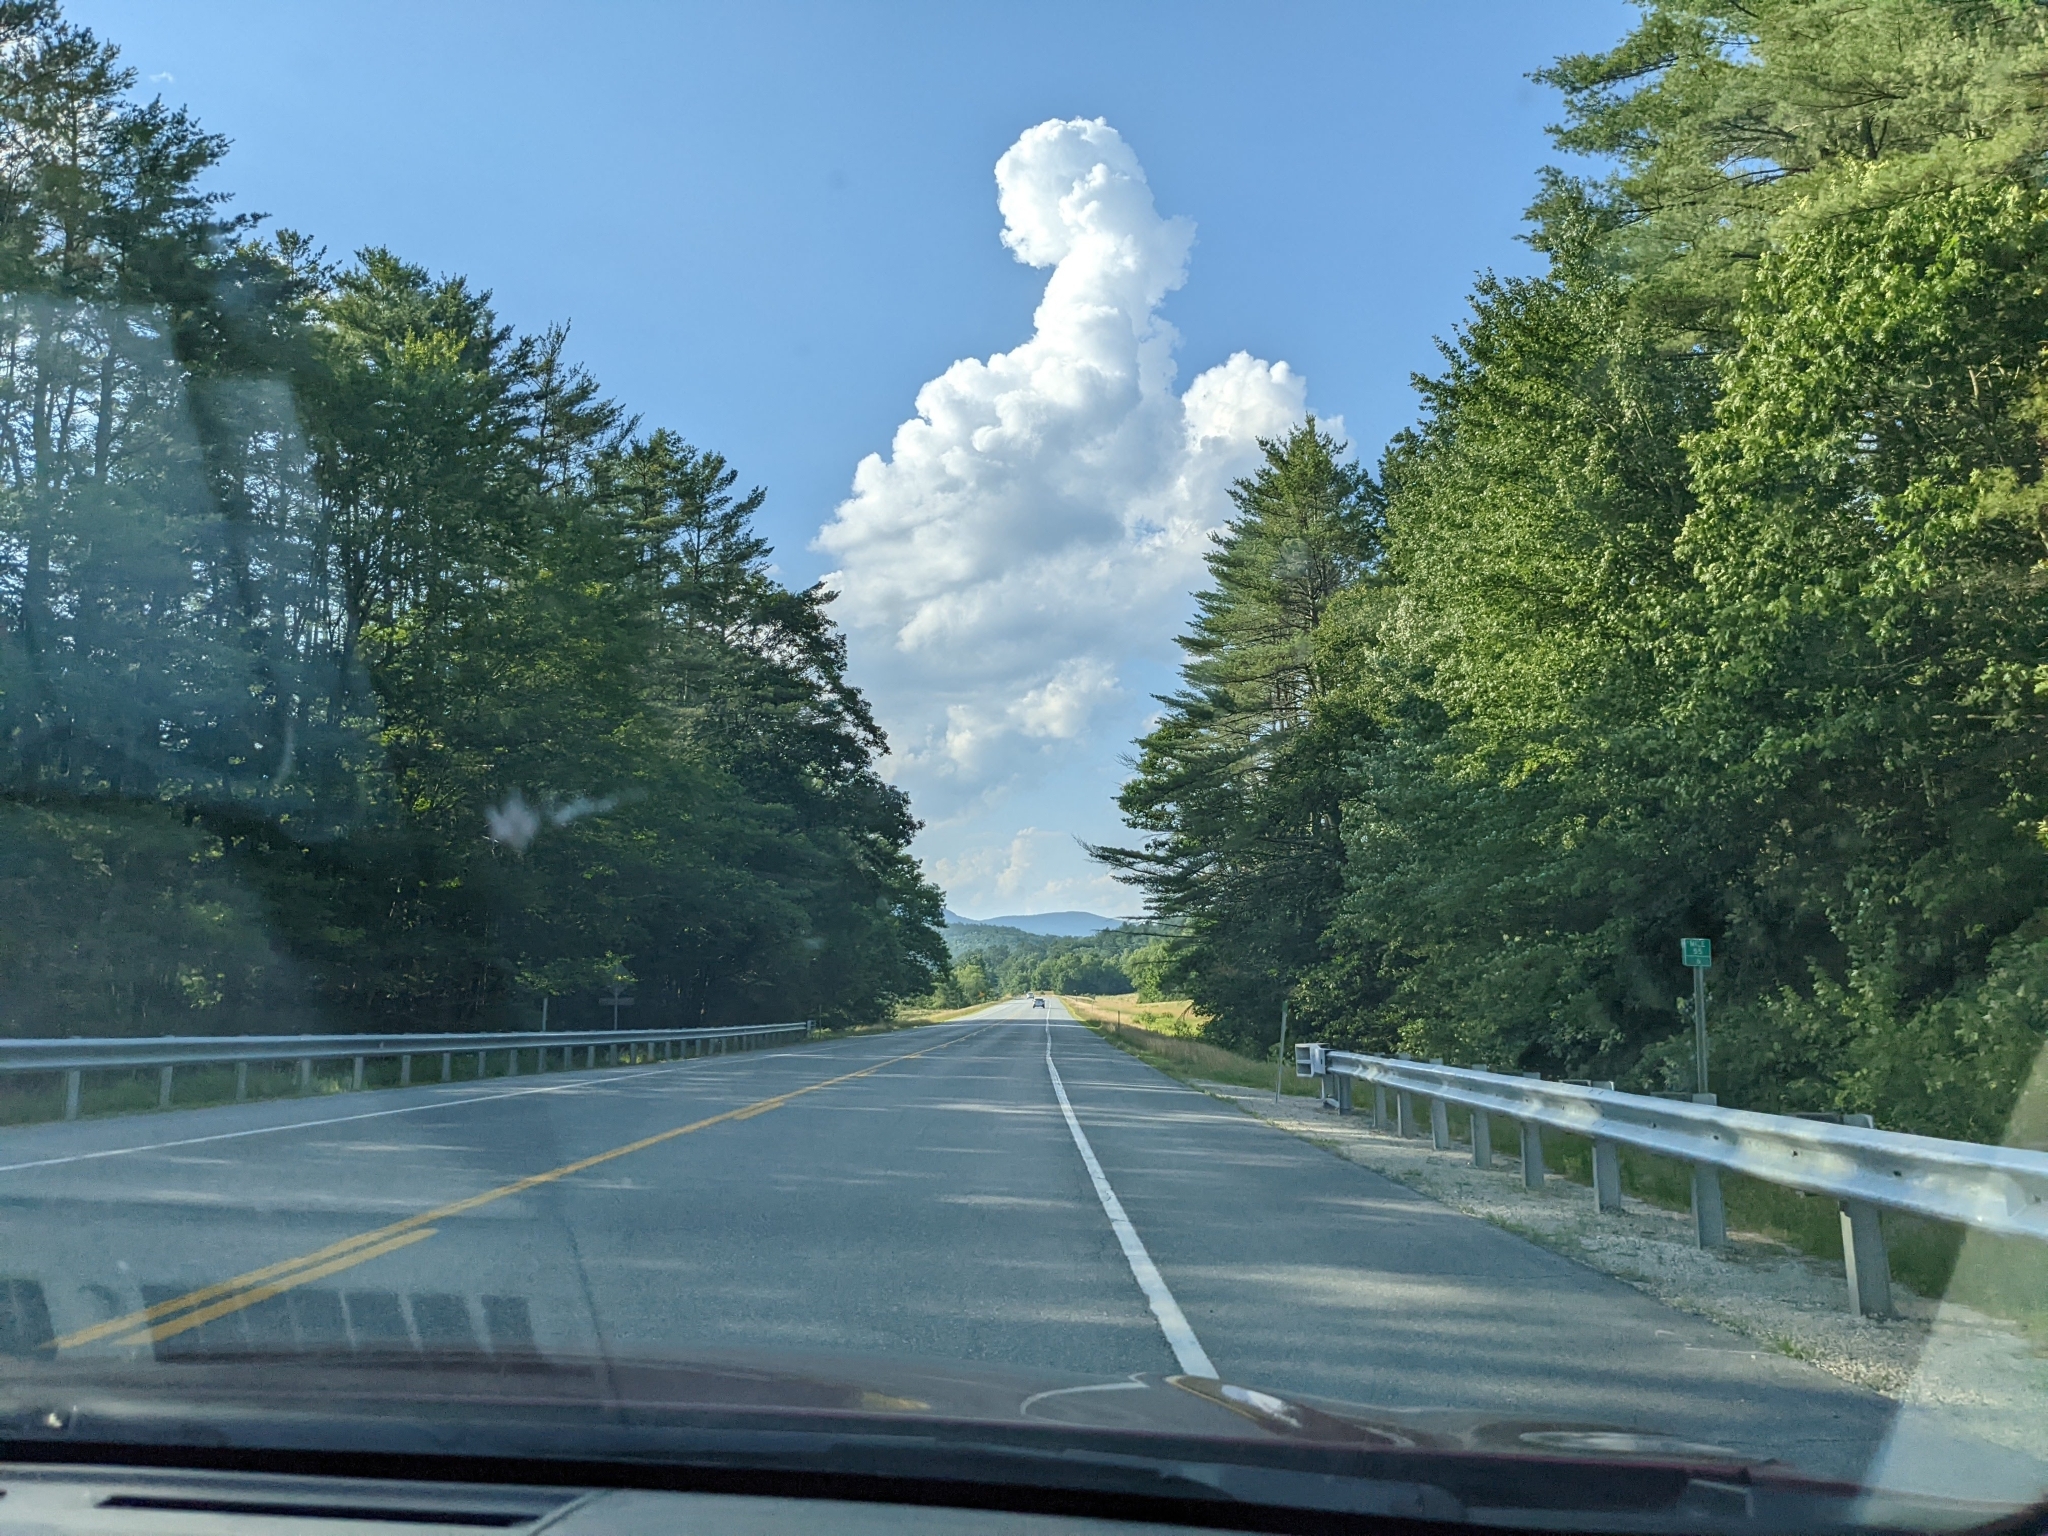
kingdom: Plantae
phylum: Tracheophyta
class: Pinopsida
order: Pinales
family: Pinaceae
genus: Pinus
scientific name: Pinus strobus
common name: Weymouth pine
